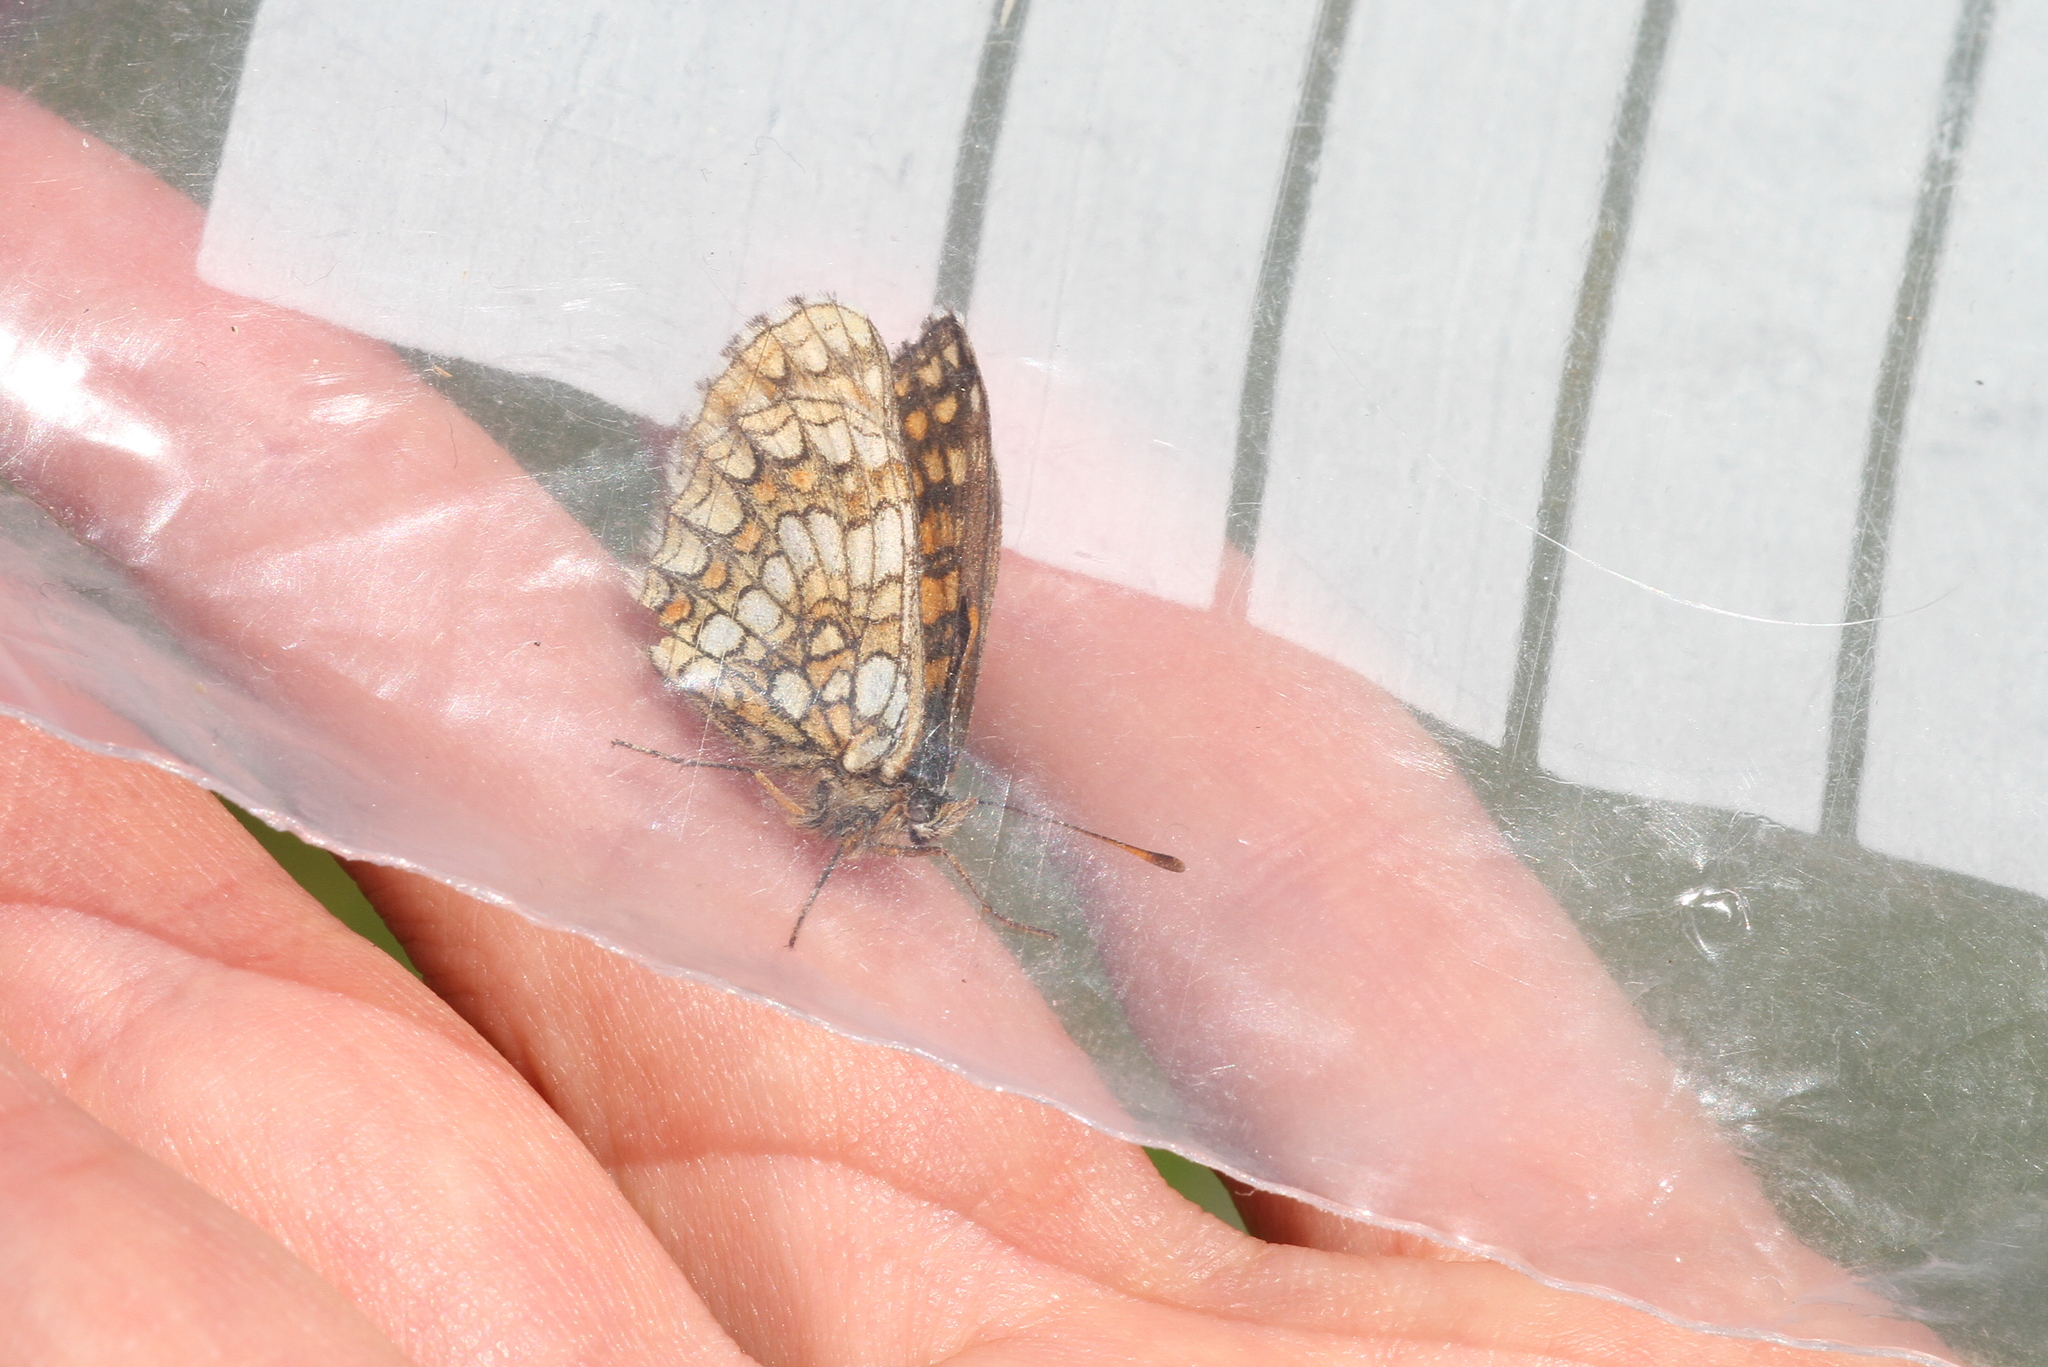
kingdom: Animalia
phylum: Arthropoda
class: Insecta
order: Lepidoptera
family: Nymphalidae
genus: Mellicta
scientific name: Mellicta aurelia
